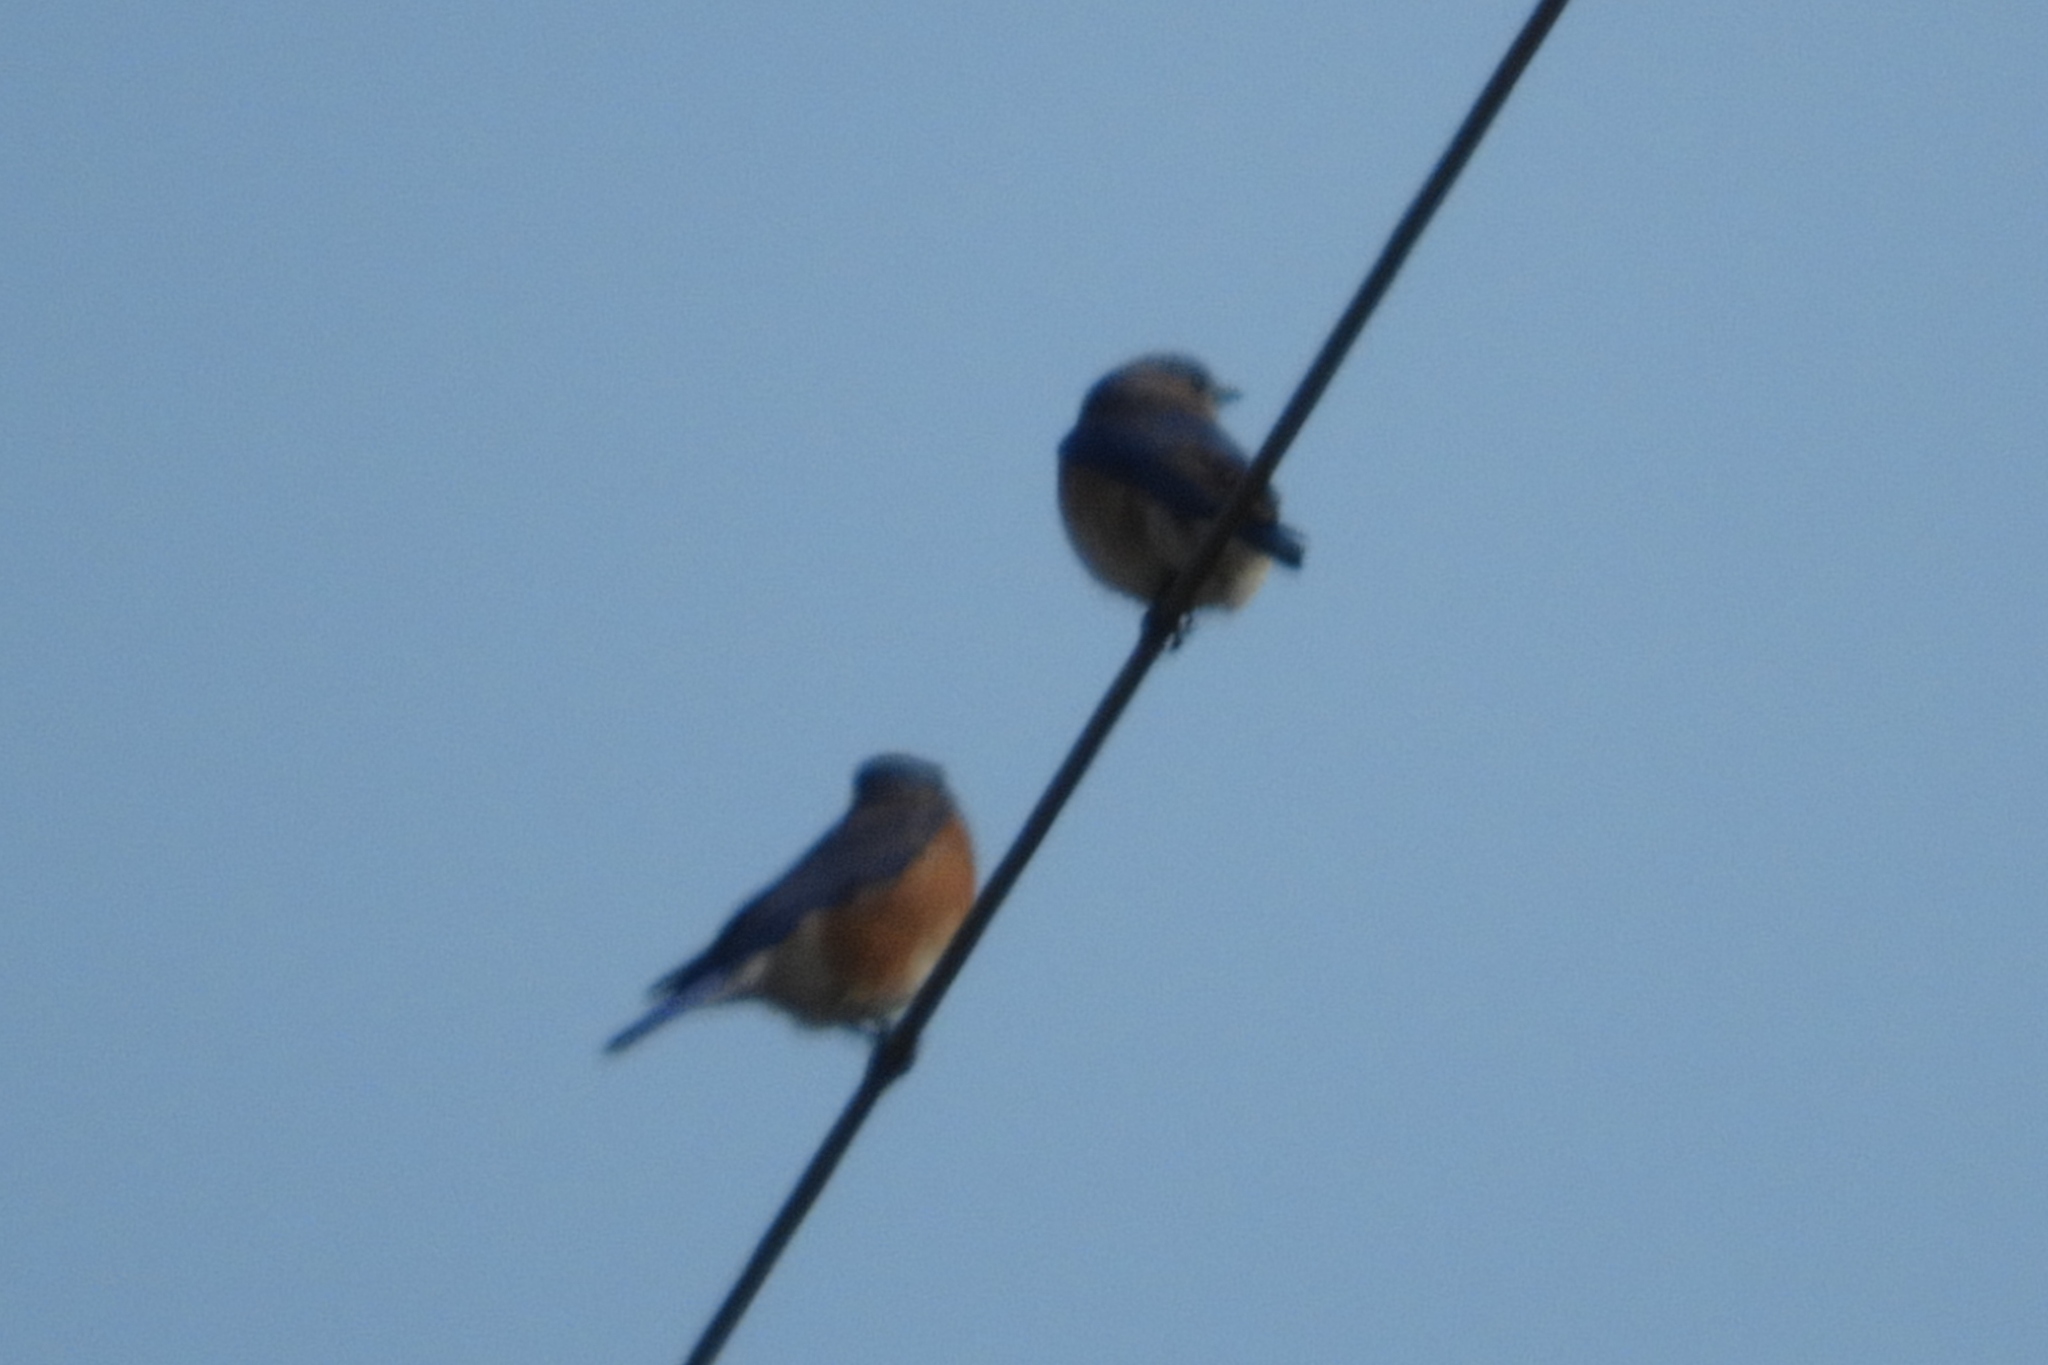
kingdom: Animalia
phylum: Chordata
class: Aves
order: Passeriformes
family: Turdidae
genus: Sialia
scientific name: Sialia sialis
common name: Eastern bluebird
